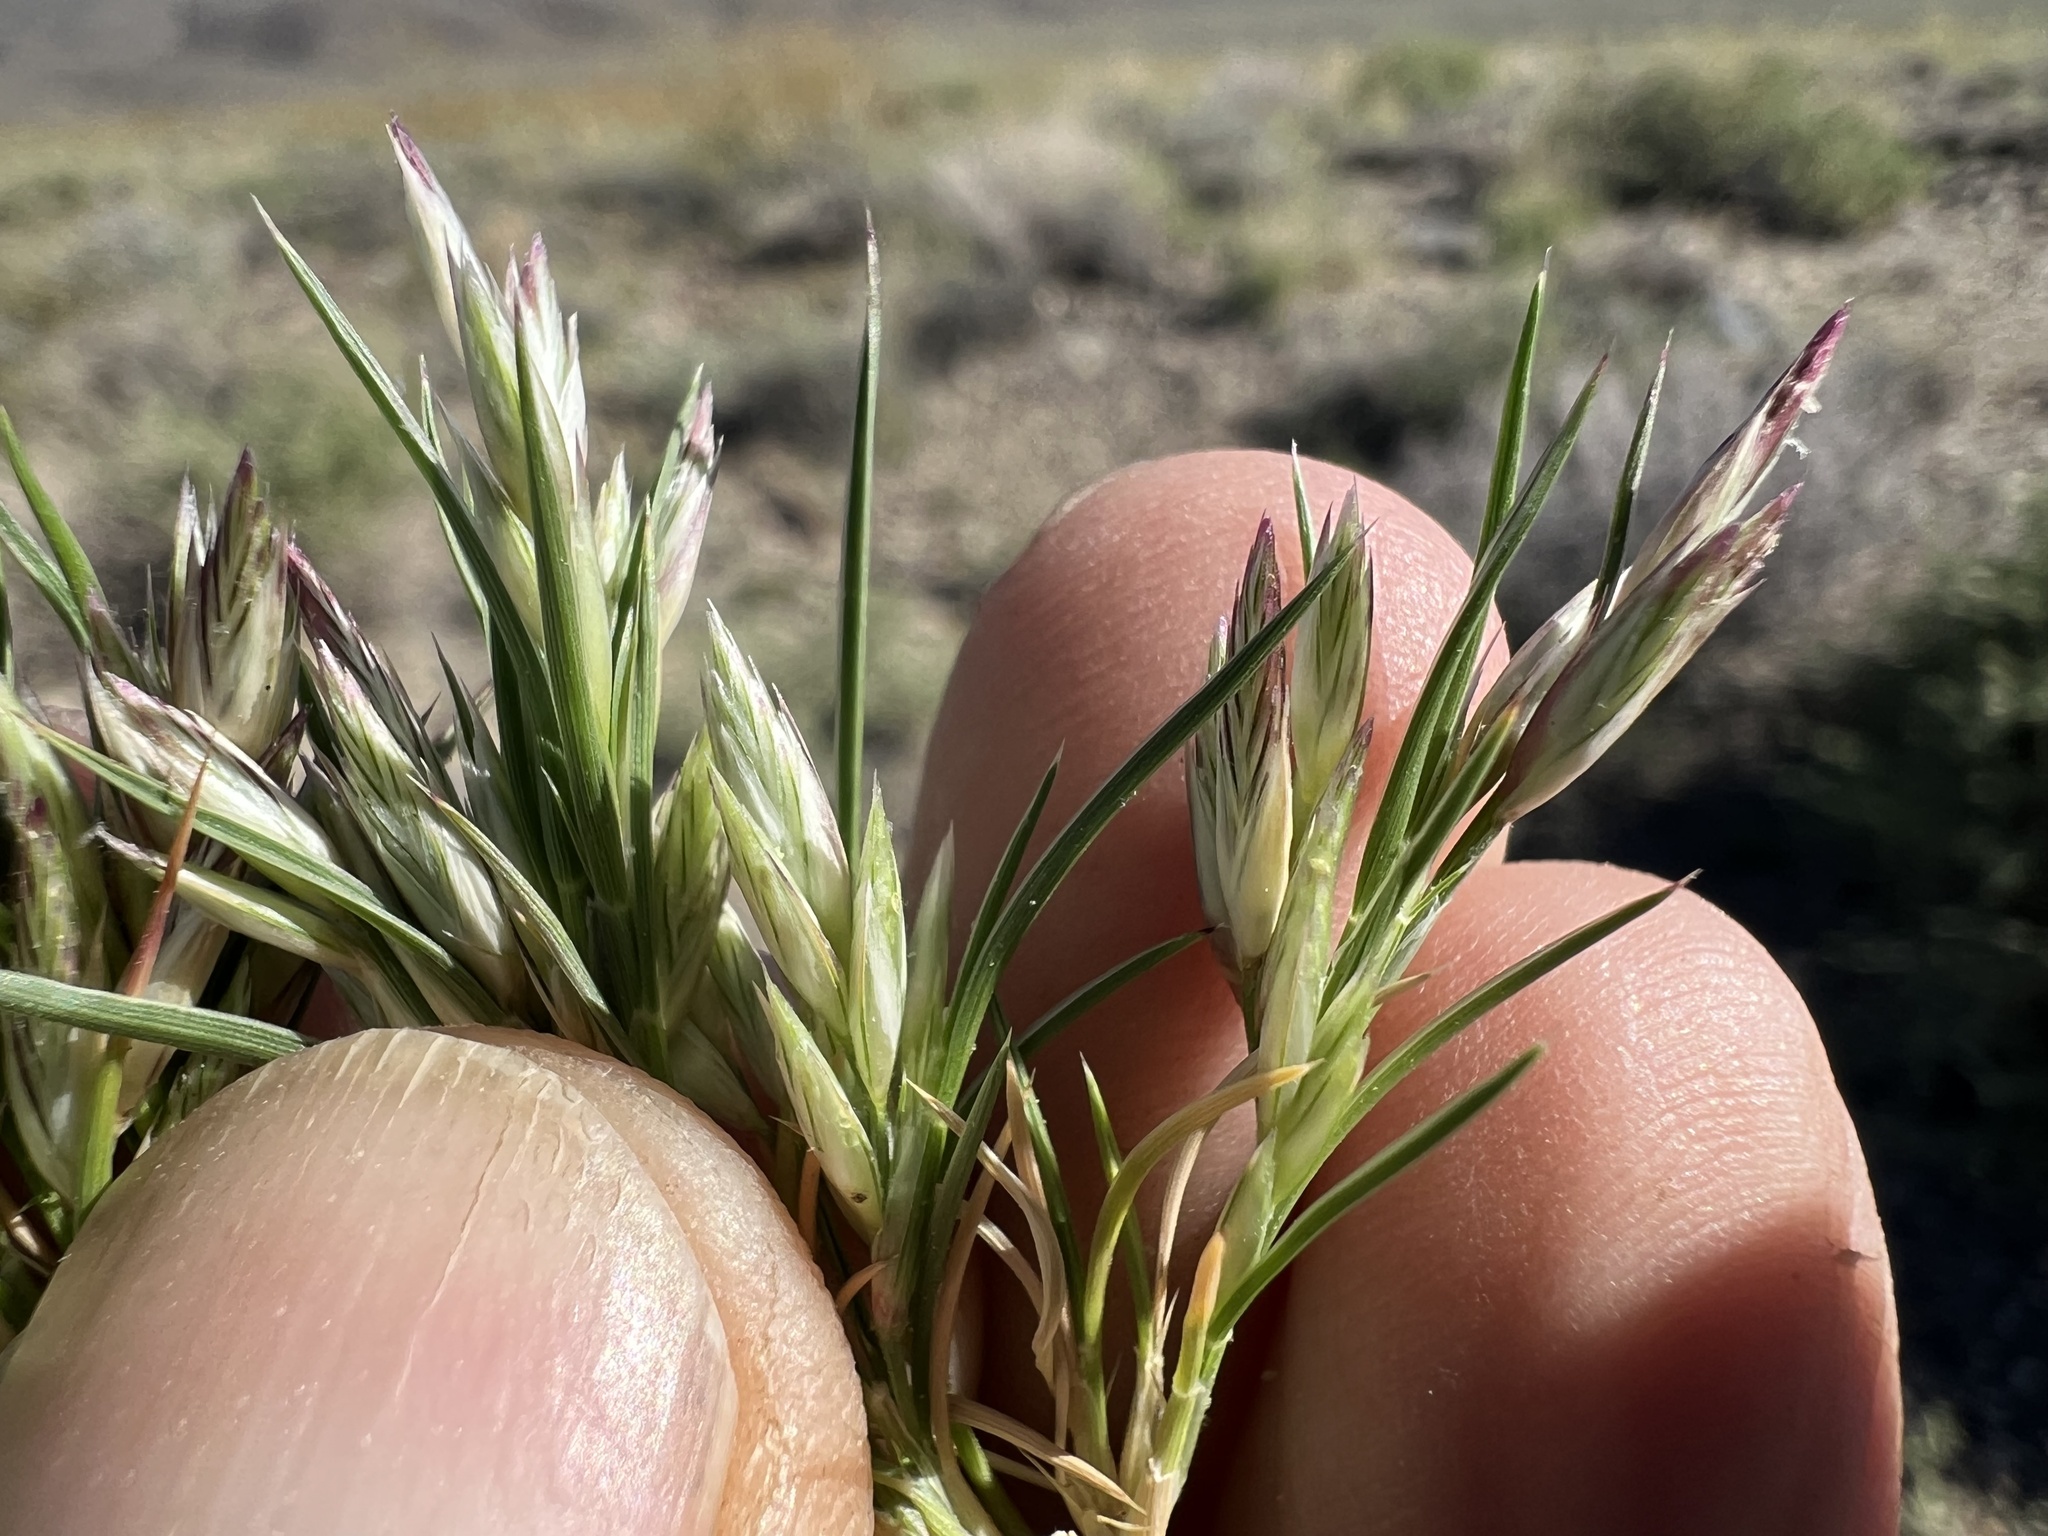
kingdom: Plantae
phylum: Tracheophyta
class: Liliopsida
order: Poales
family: Poaceae
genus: Dasyochloa
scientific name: Dasyochloa pulchella
